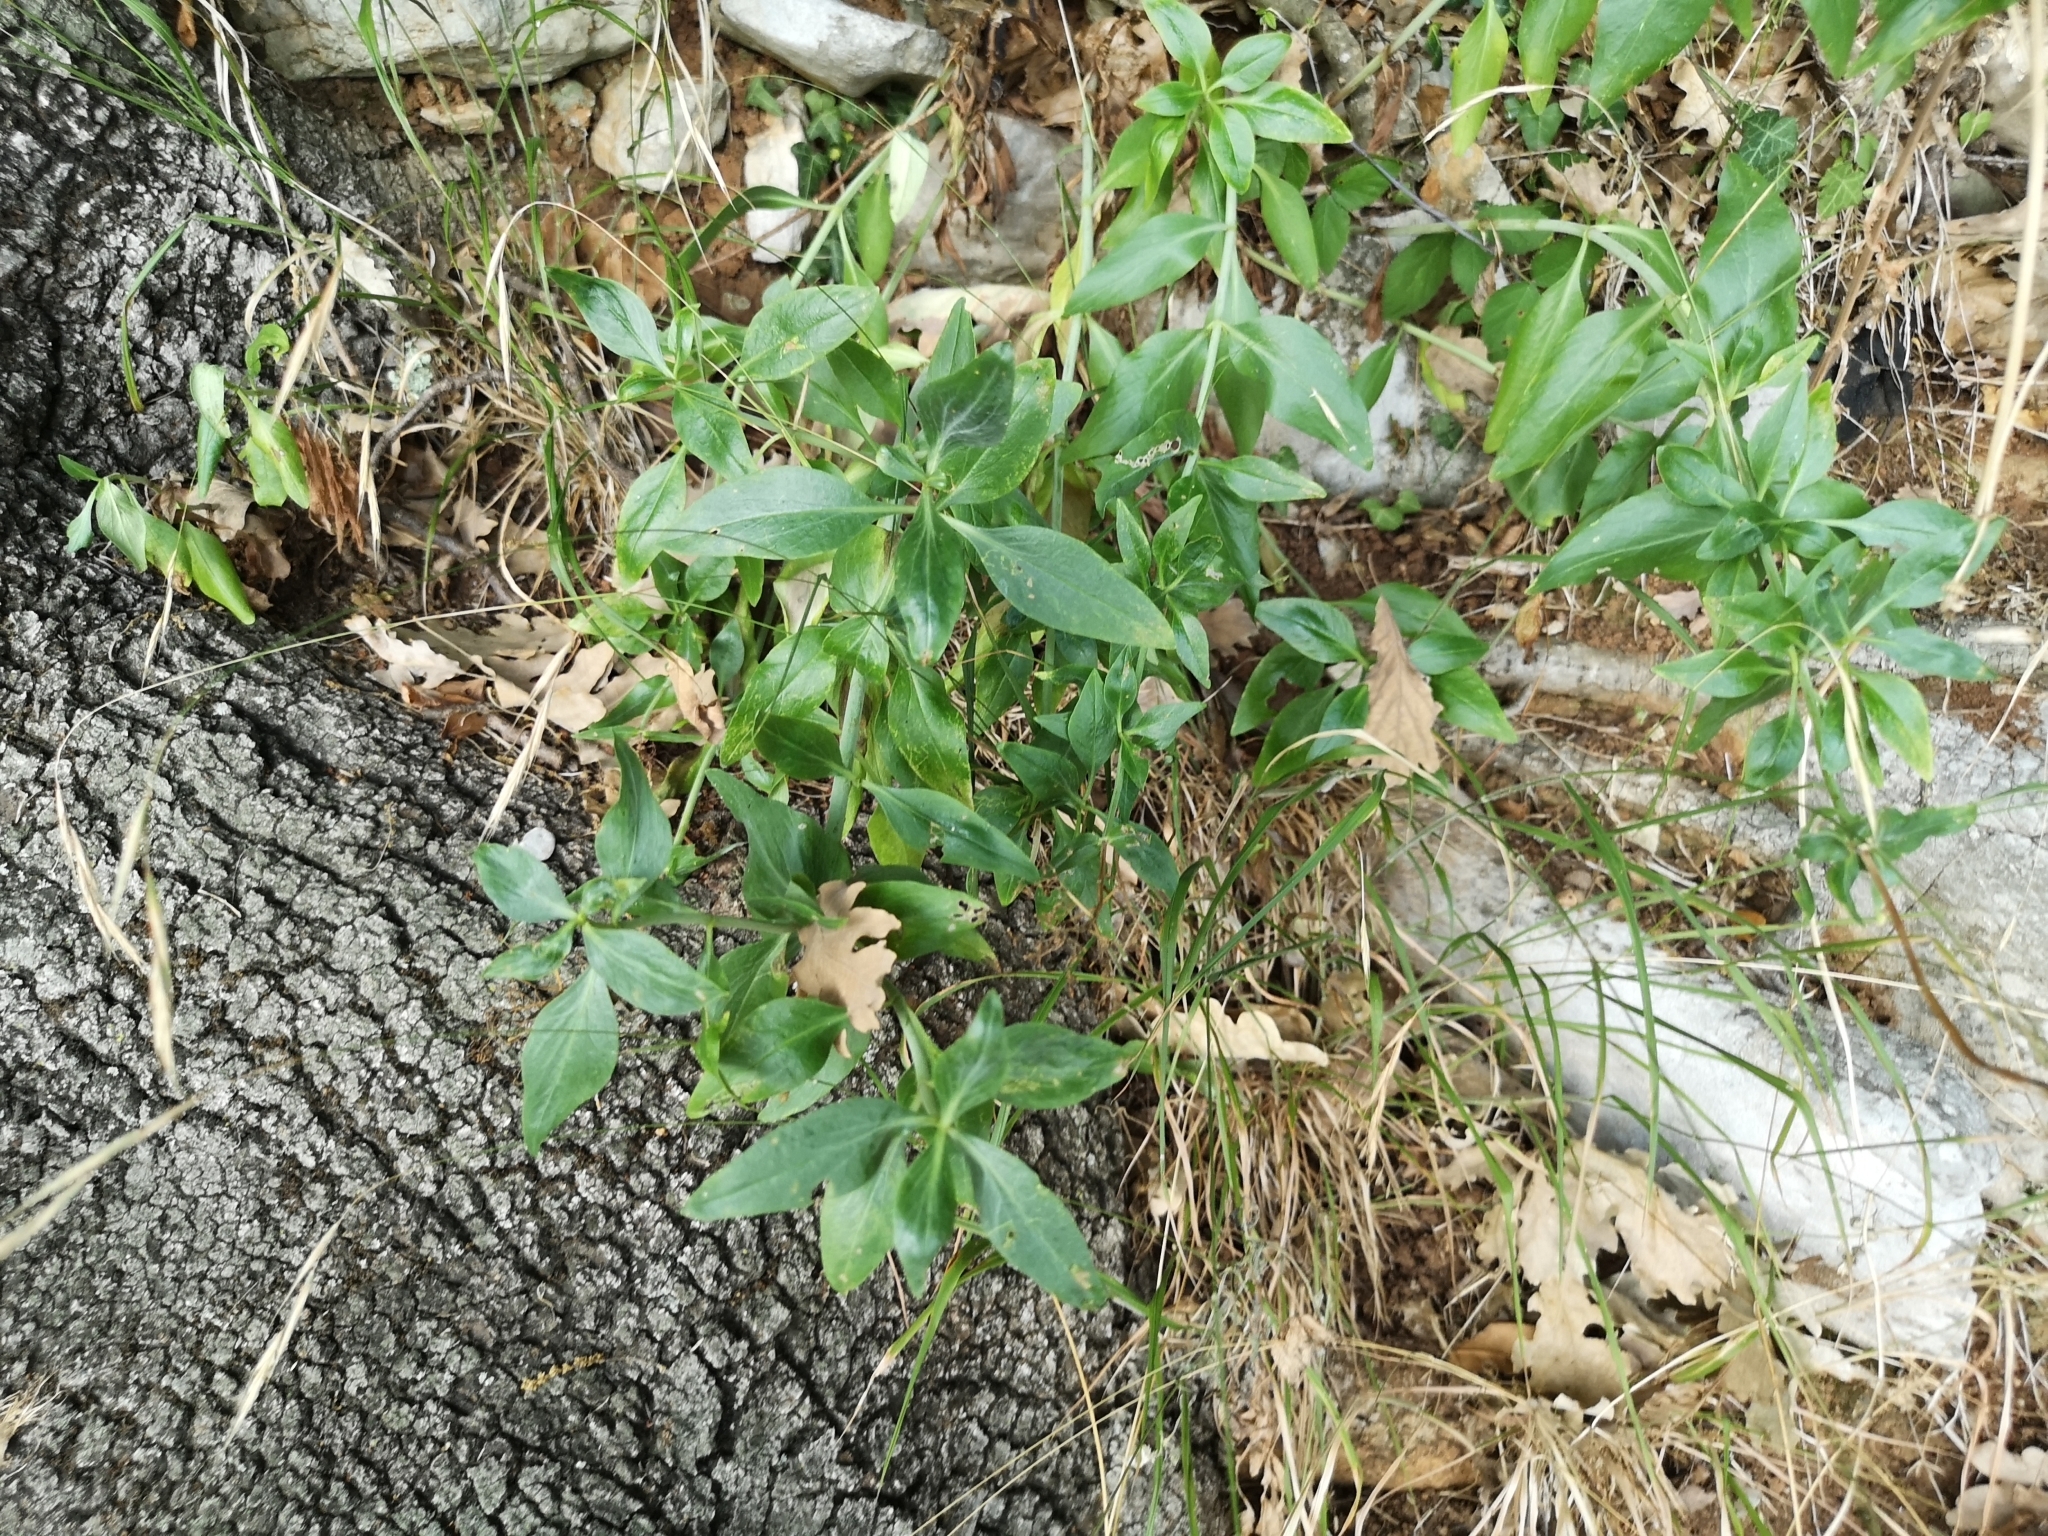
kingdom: Plantae
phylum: Tracheophyta
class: Magnoliopsida
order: Dipsacales
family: Caprifoliaceae
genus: Centranthus
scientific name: Centranthus ruber
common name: Red valerian
